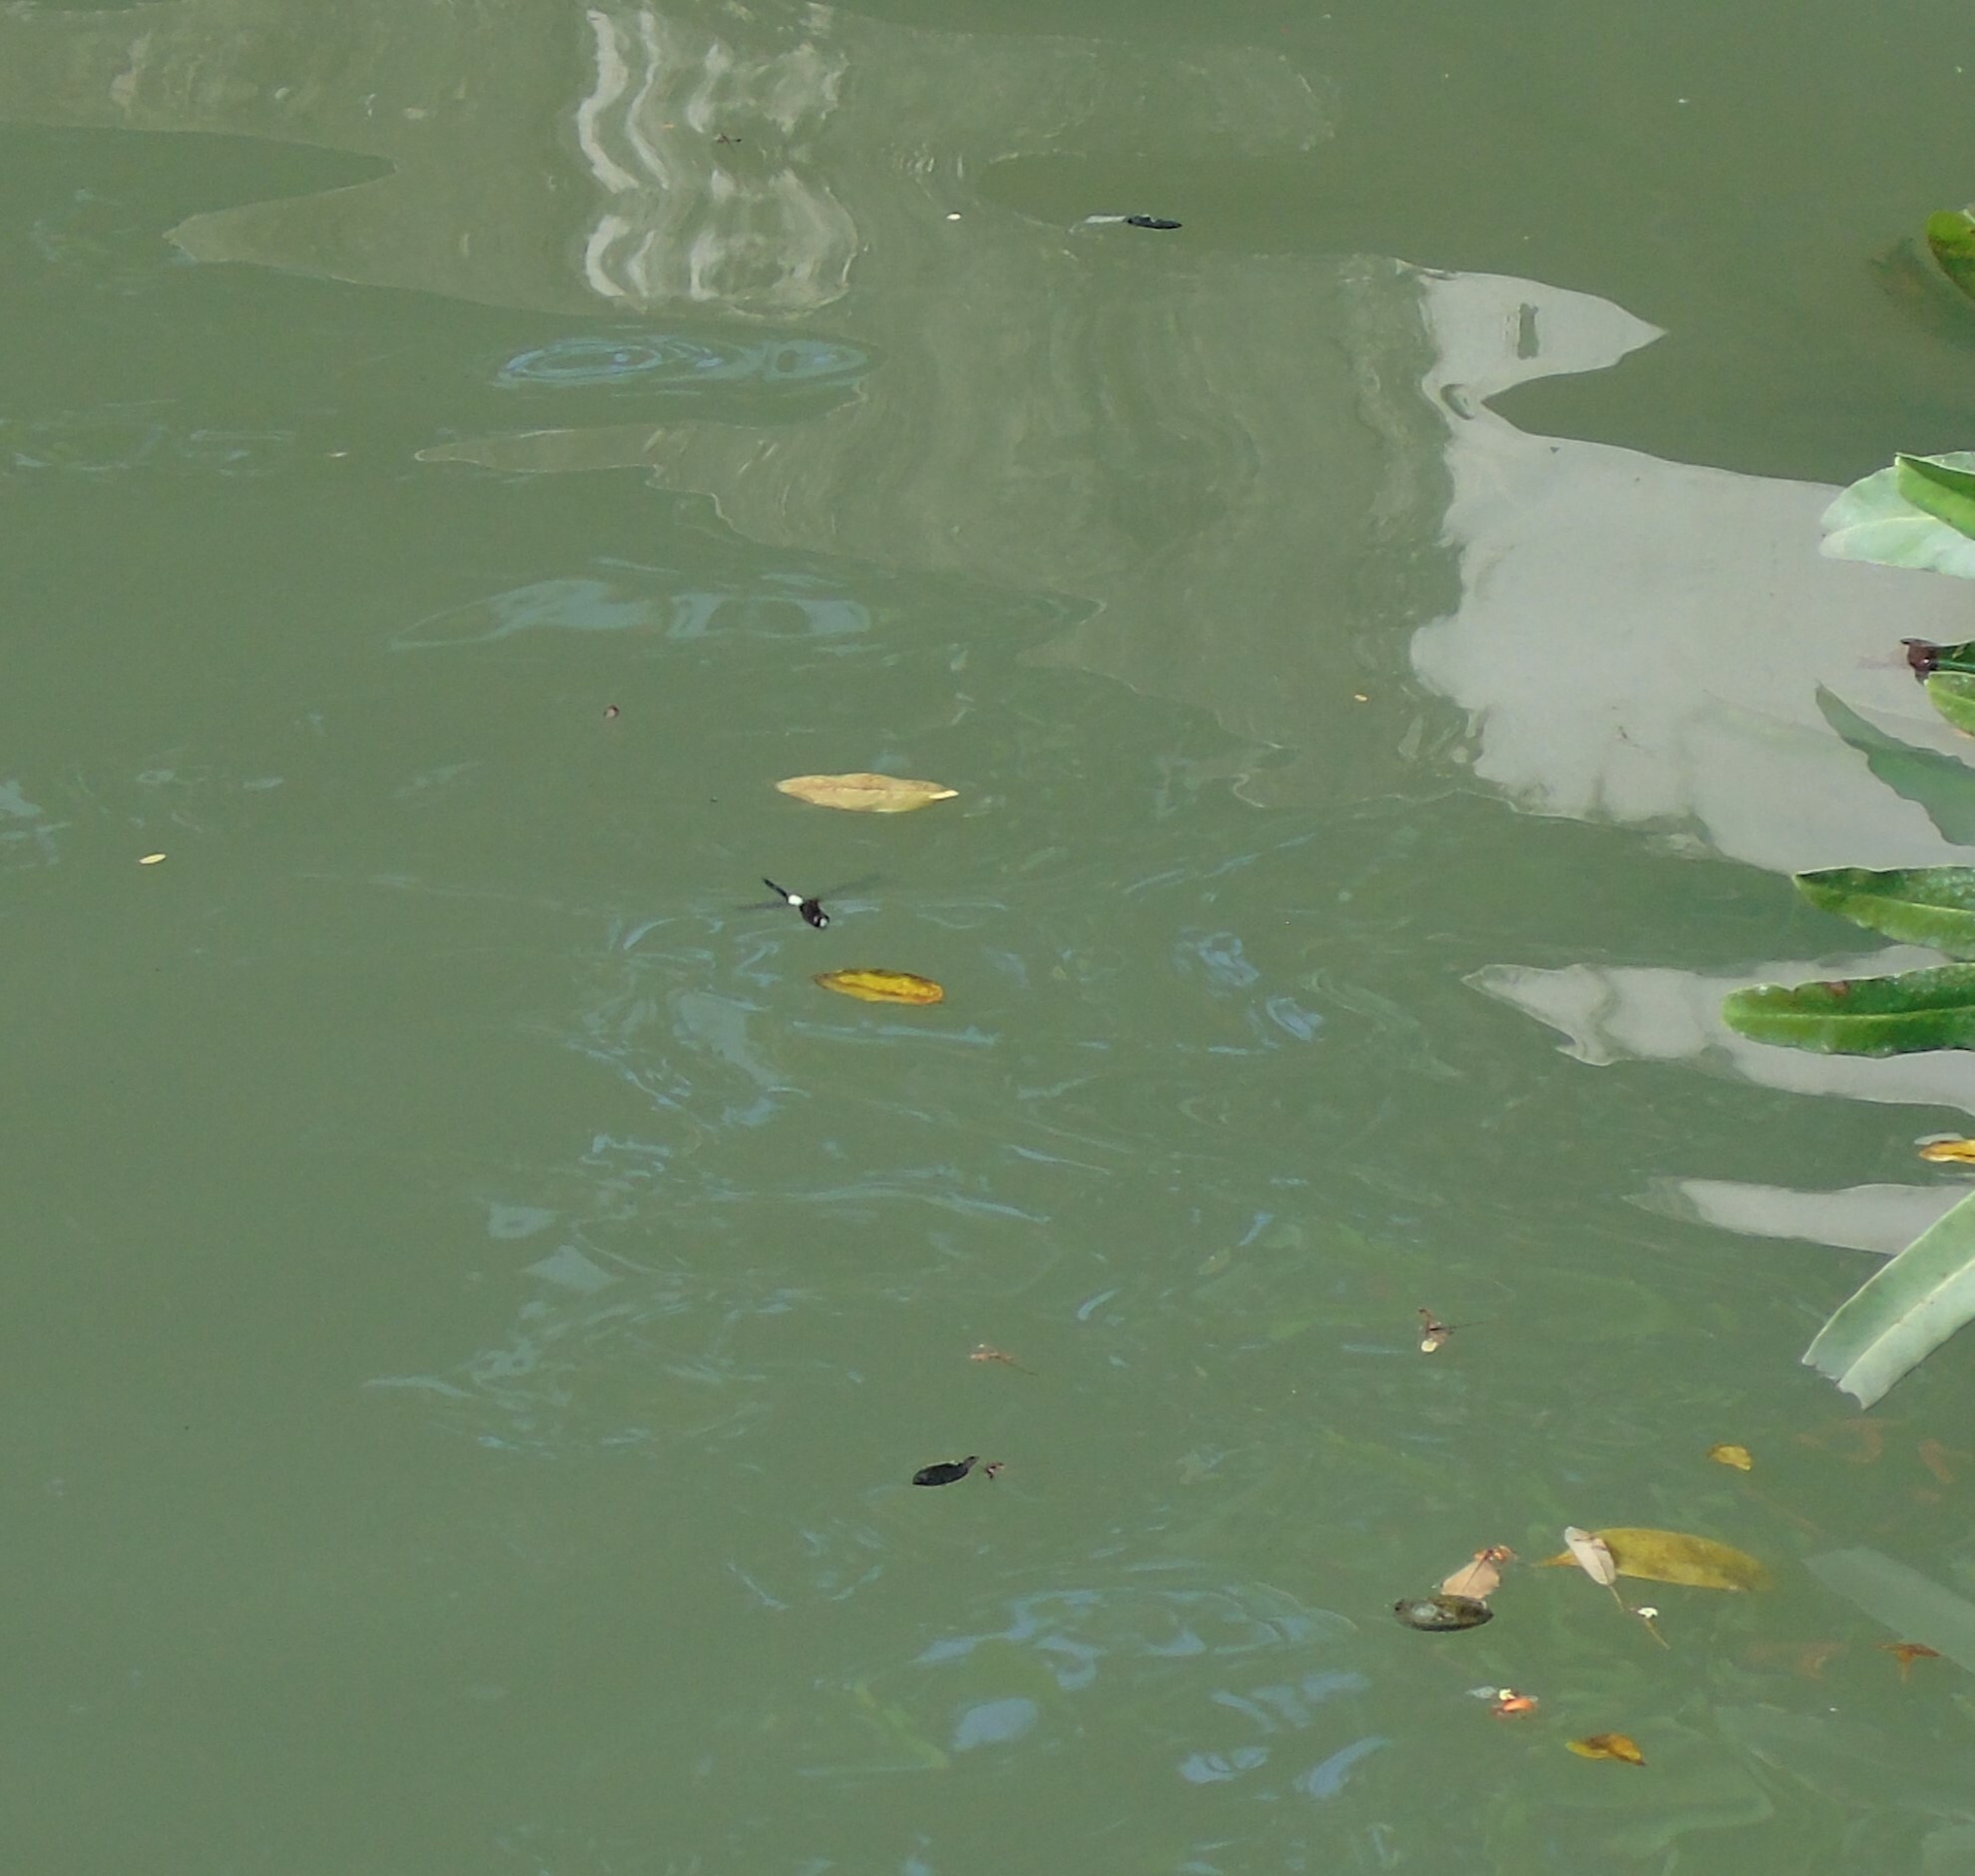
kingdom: Animalia
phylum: Arthropoda
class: Insecta
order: Odonata
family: Libellulidae
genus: Pseudothemis
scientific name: Pseudothemis jorina
